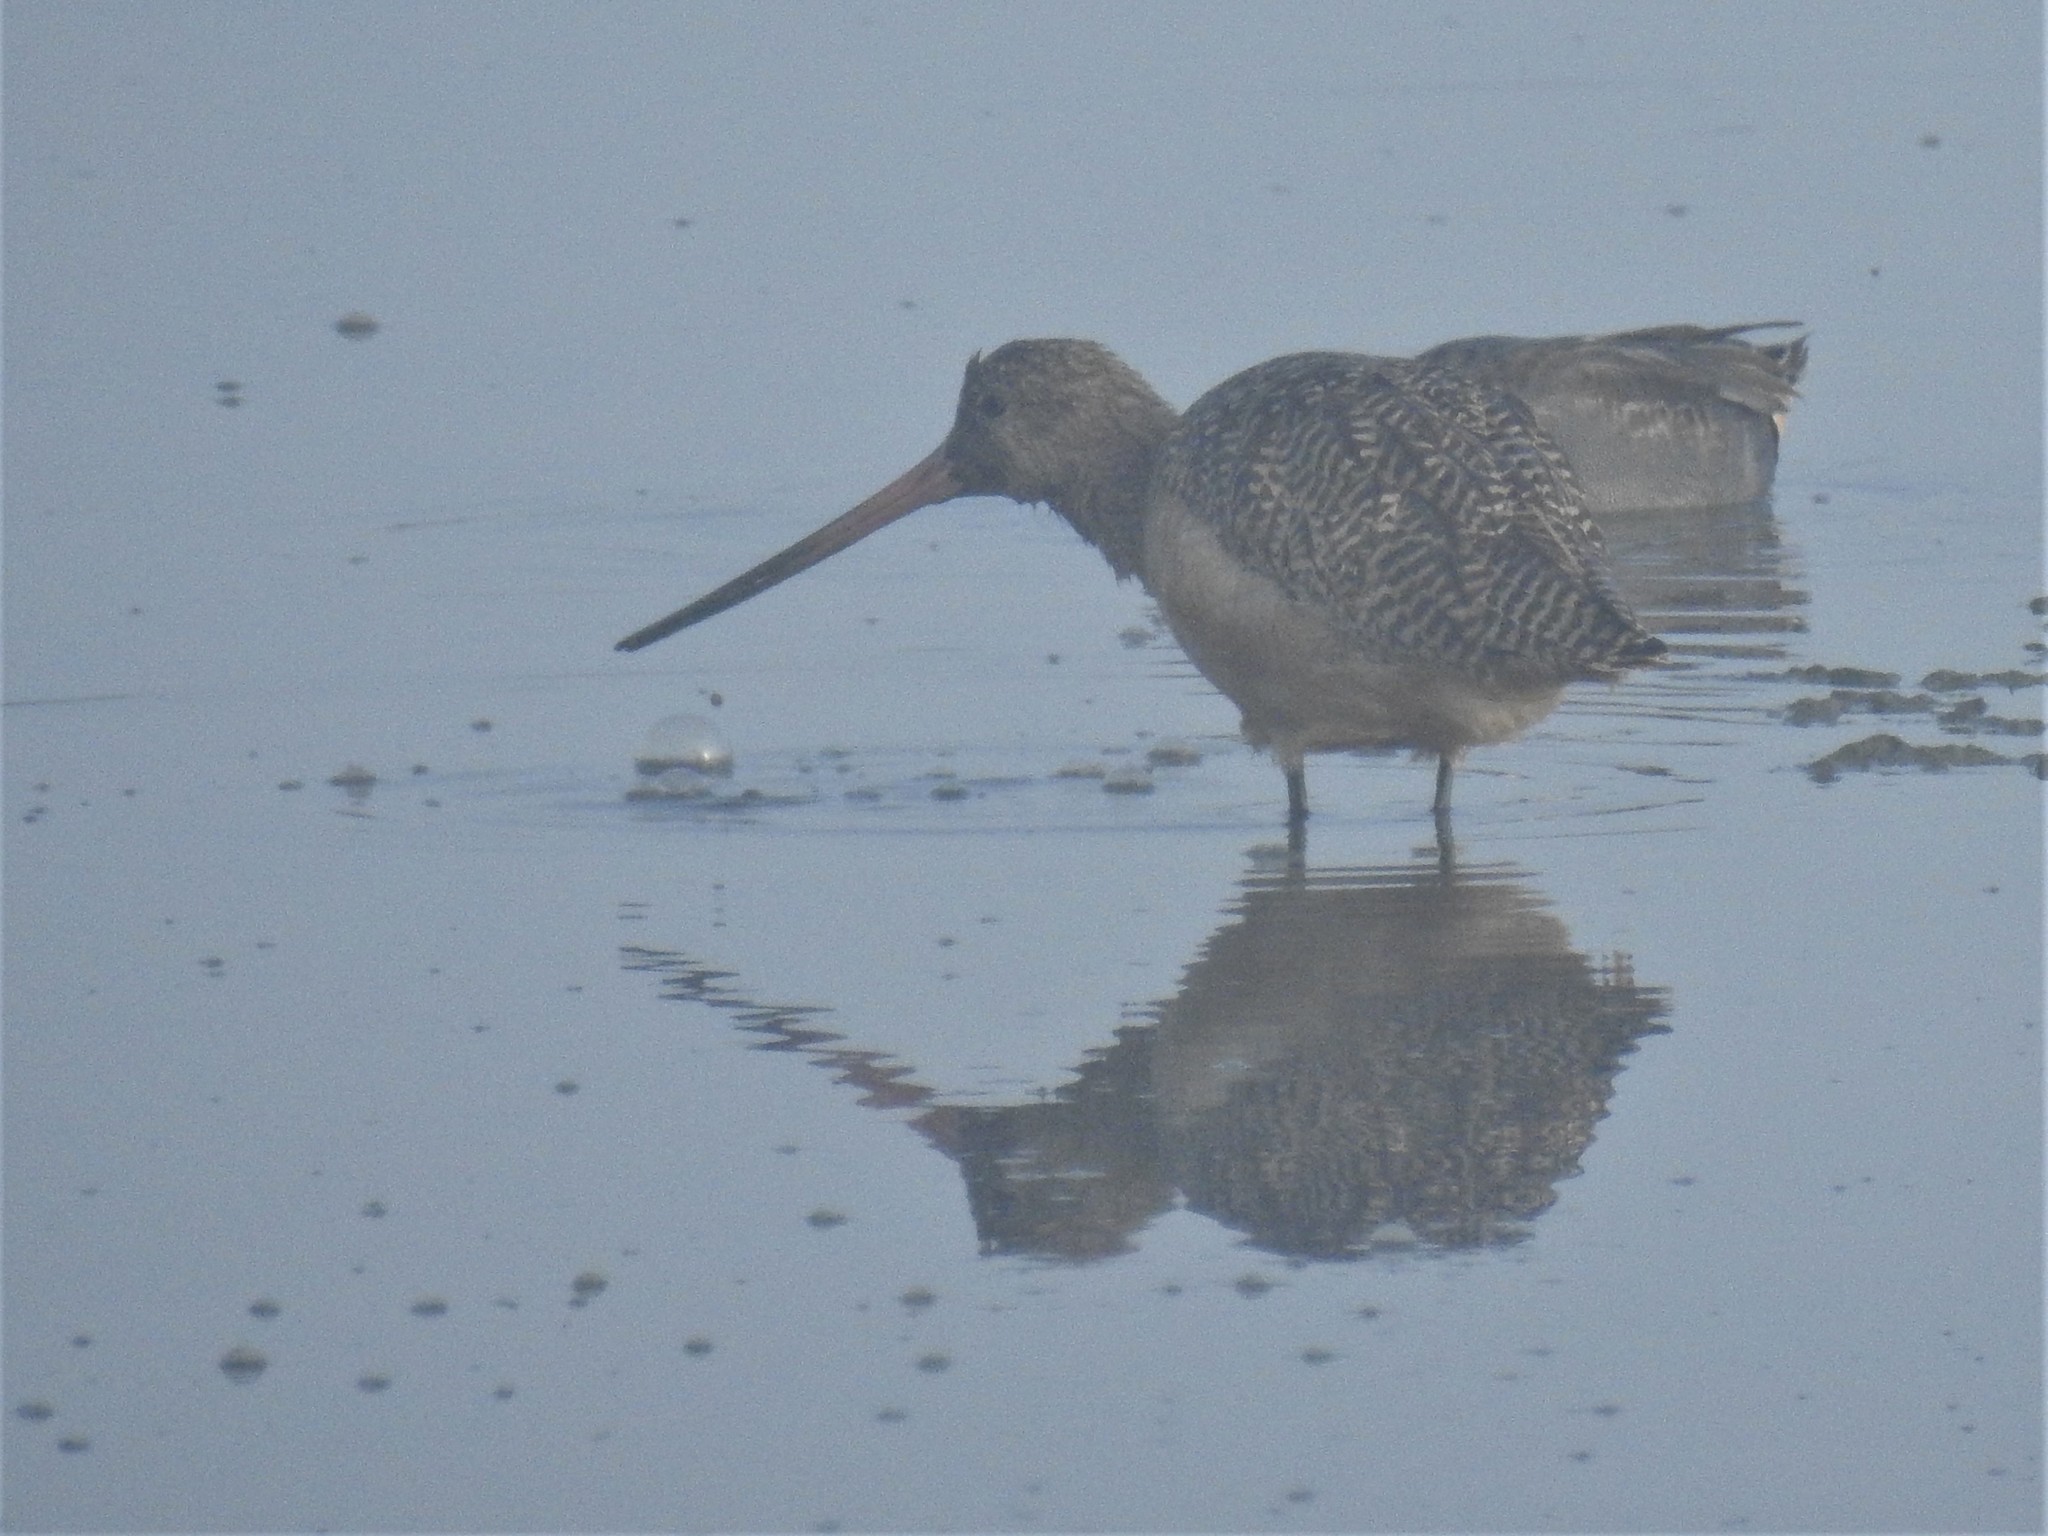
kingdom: Animalia
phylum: Chordata
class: Aves
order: Charadriiformes
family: Scolopacidae
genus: Limosa
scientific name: Limosa fedoa
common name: Marbled godwit
